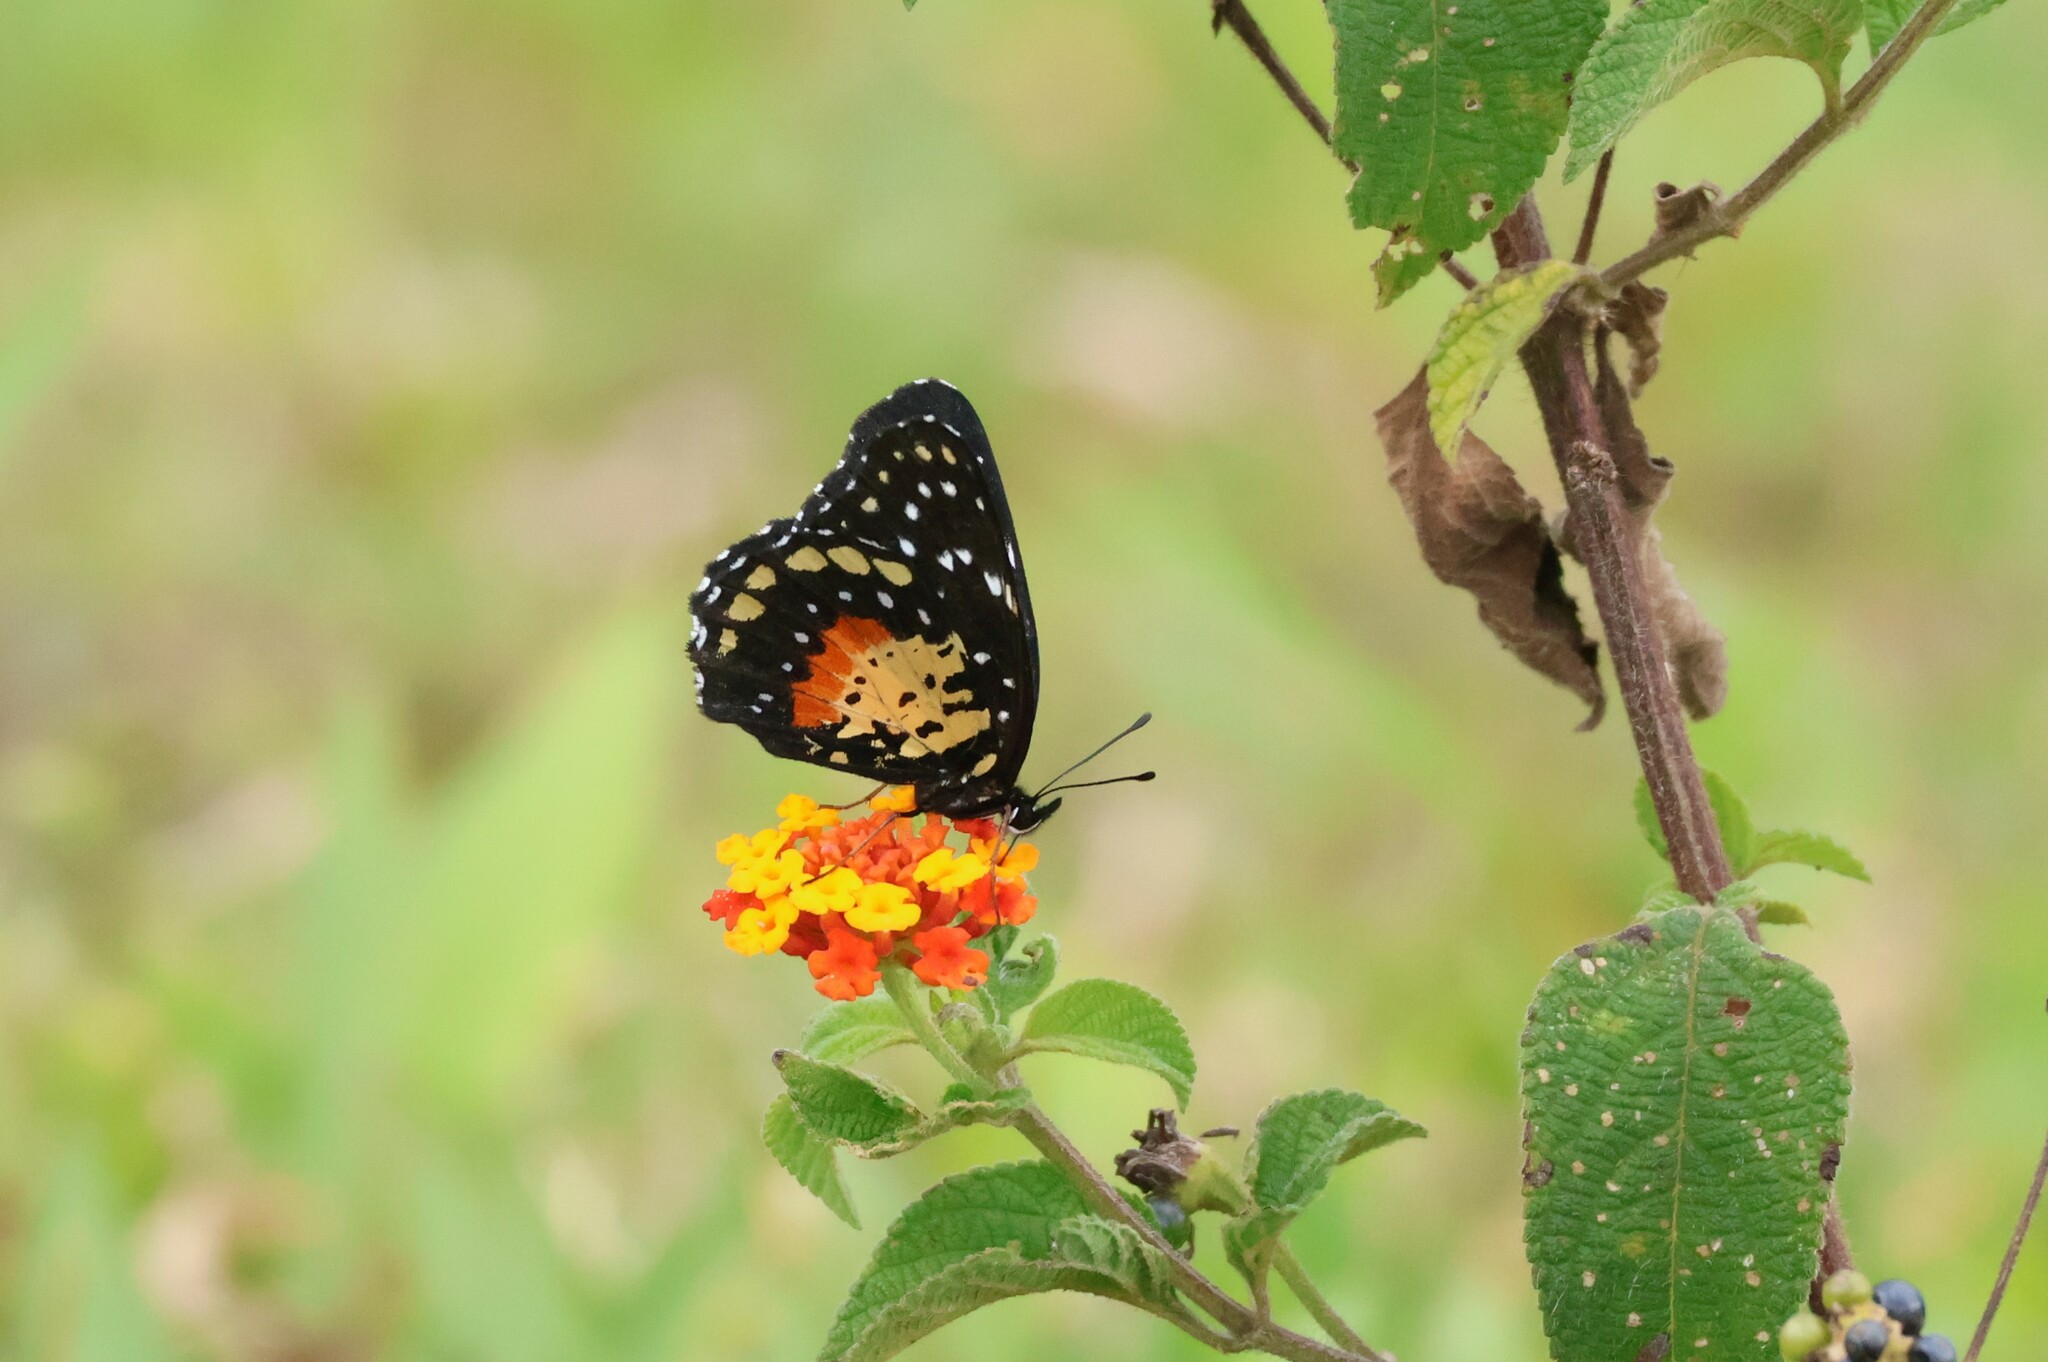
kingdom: Animalia
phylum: Arthropoda
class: Insecta
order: Lepidoptera
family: Nymphalidae
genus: Chlosyne
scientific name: Chlosyne janais
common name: Crimson patch
